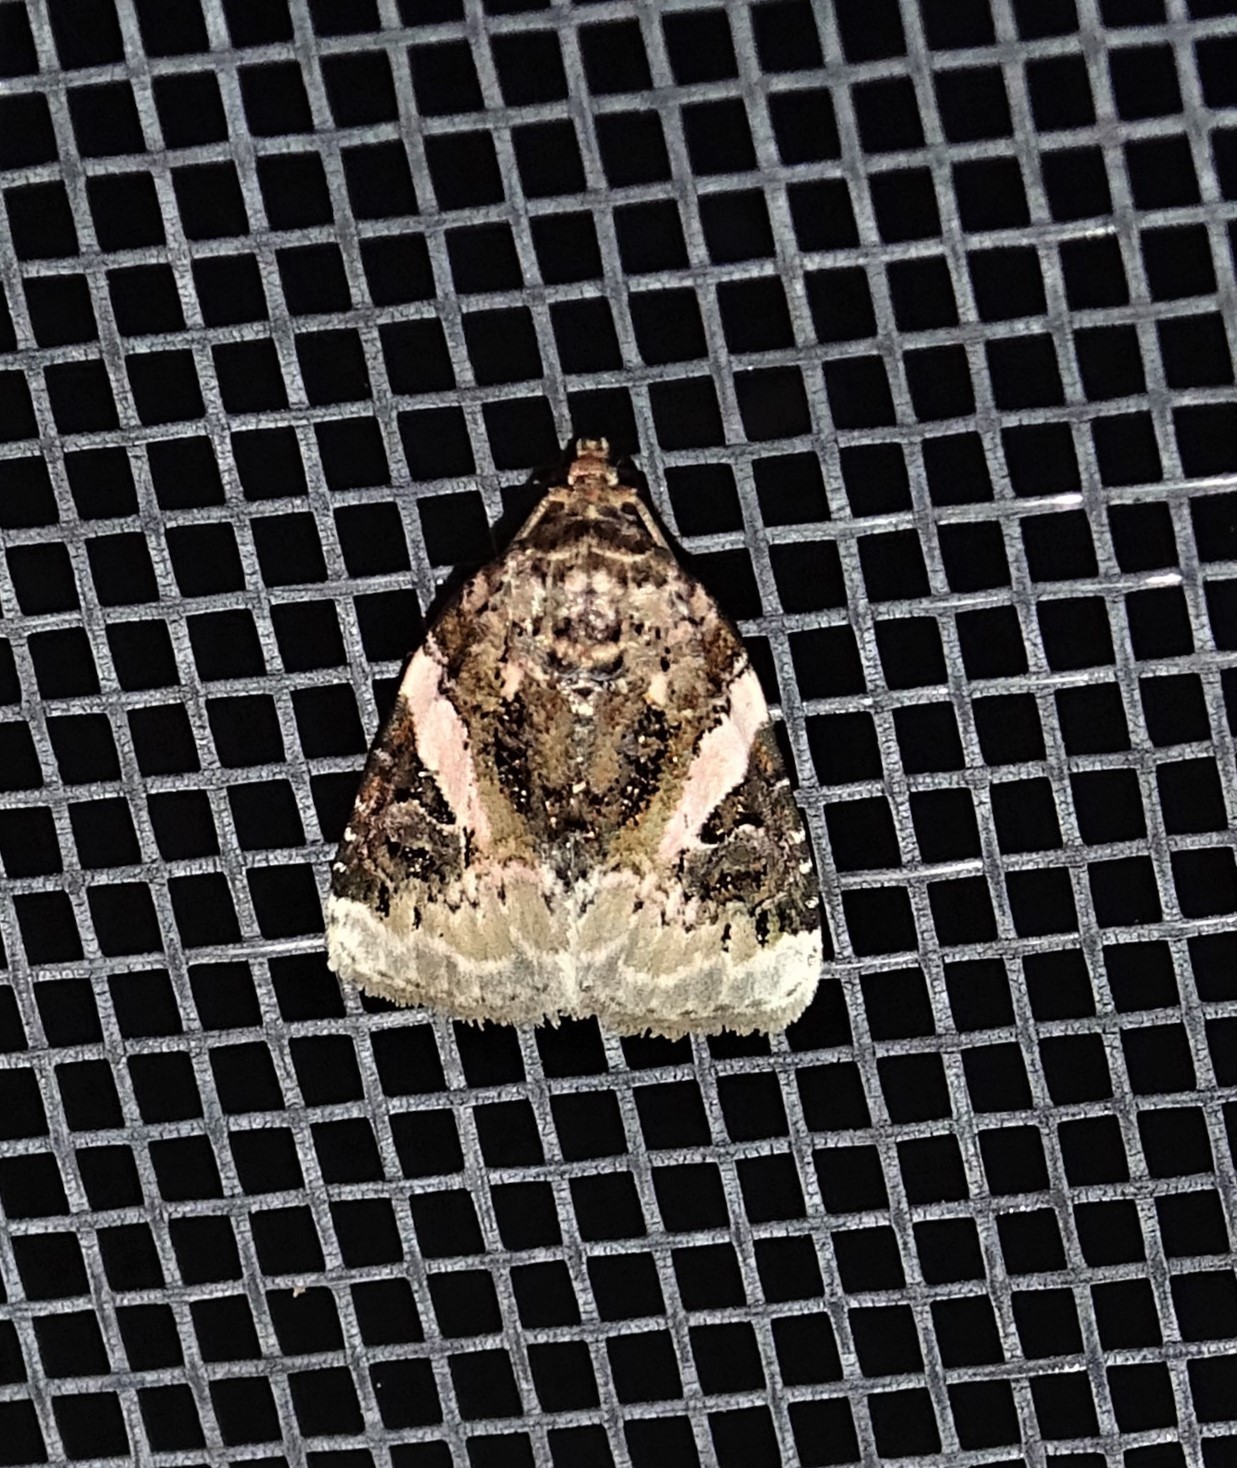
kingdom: Animalia
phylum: Arthropoda
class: Insecta
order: Lepidoptera
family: Noctuidae
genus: Pseudeustrotia
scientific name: Pseudeustrotia carneola
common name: Pink-barred lithacodia moth
